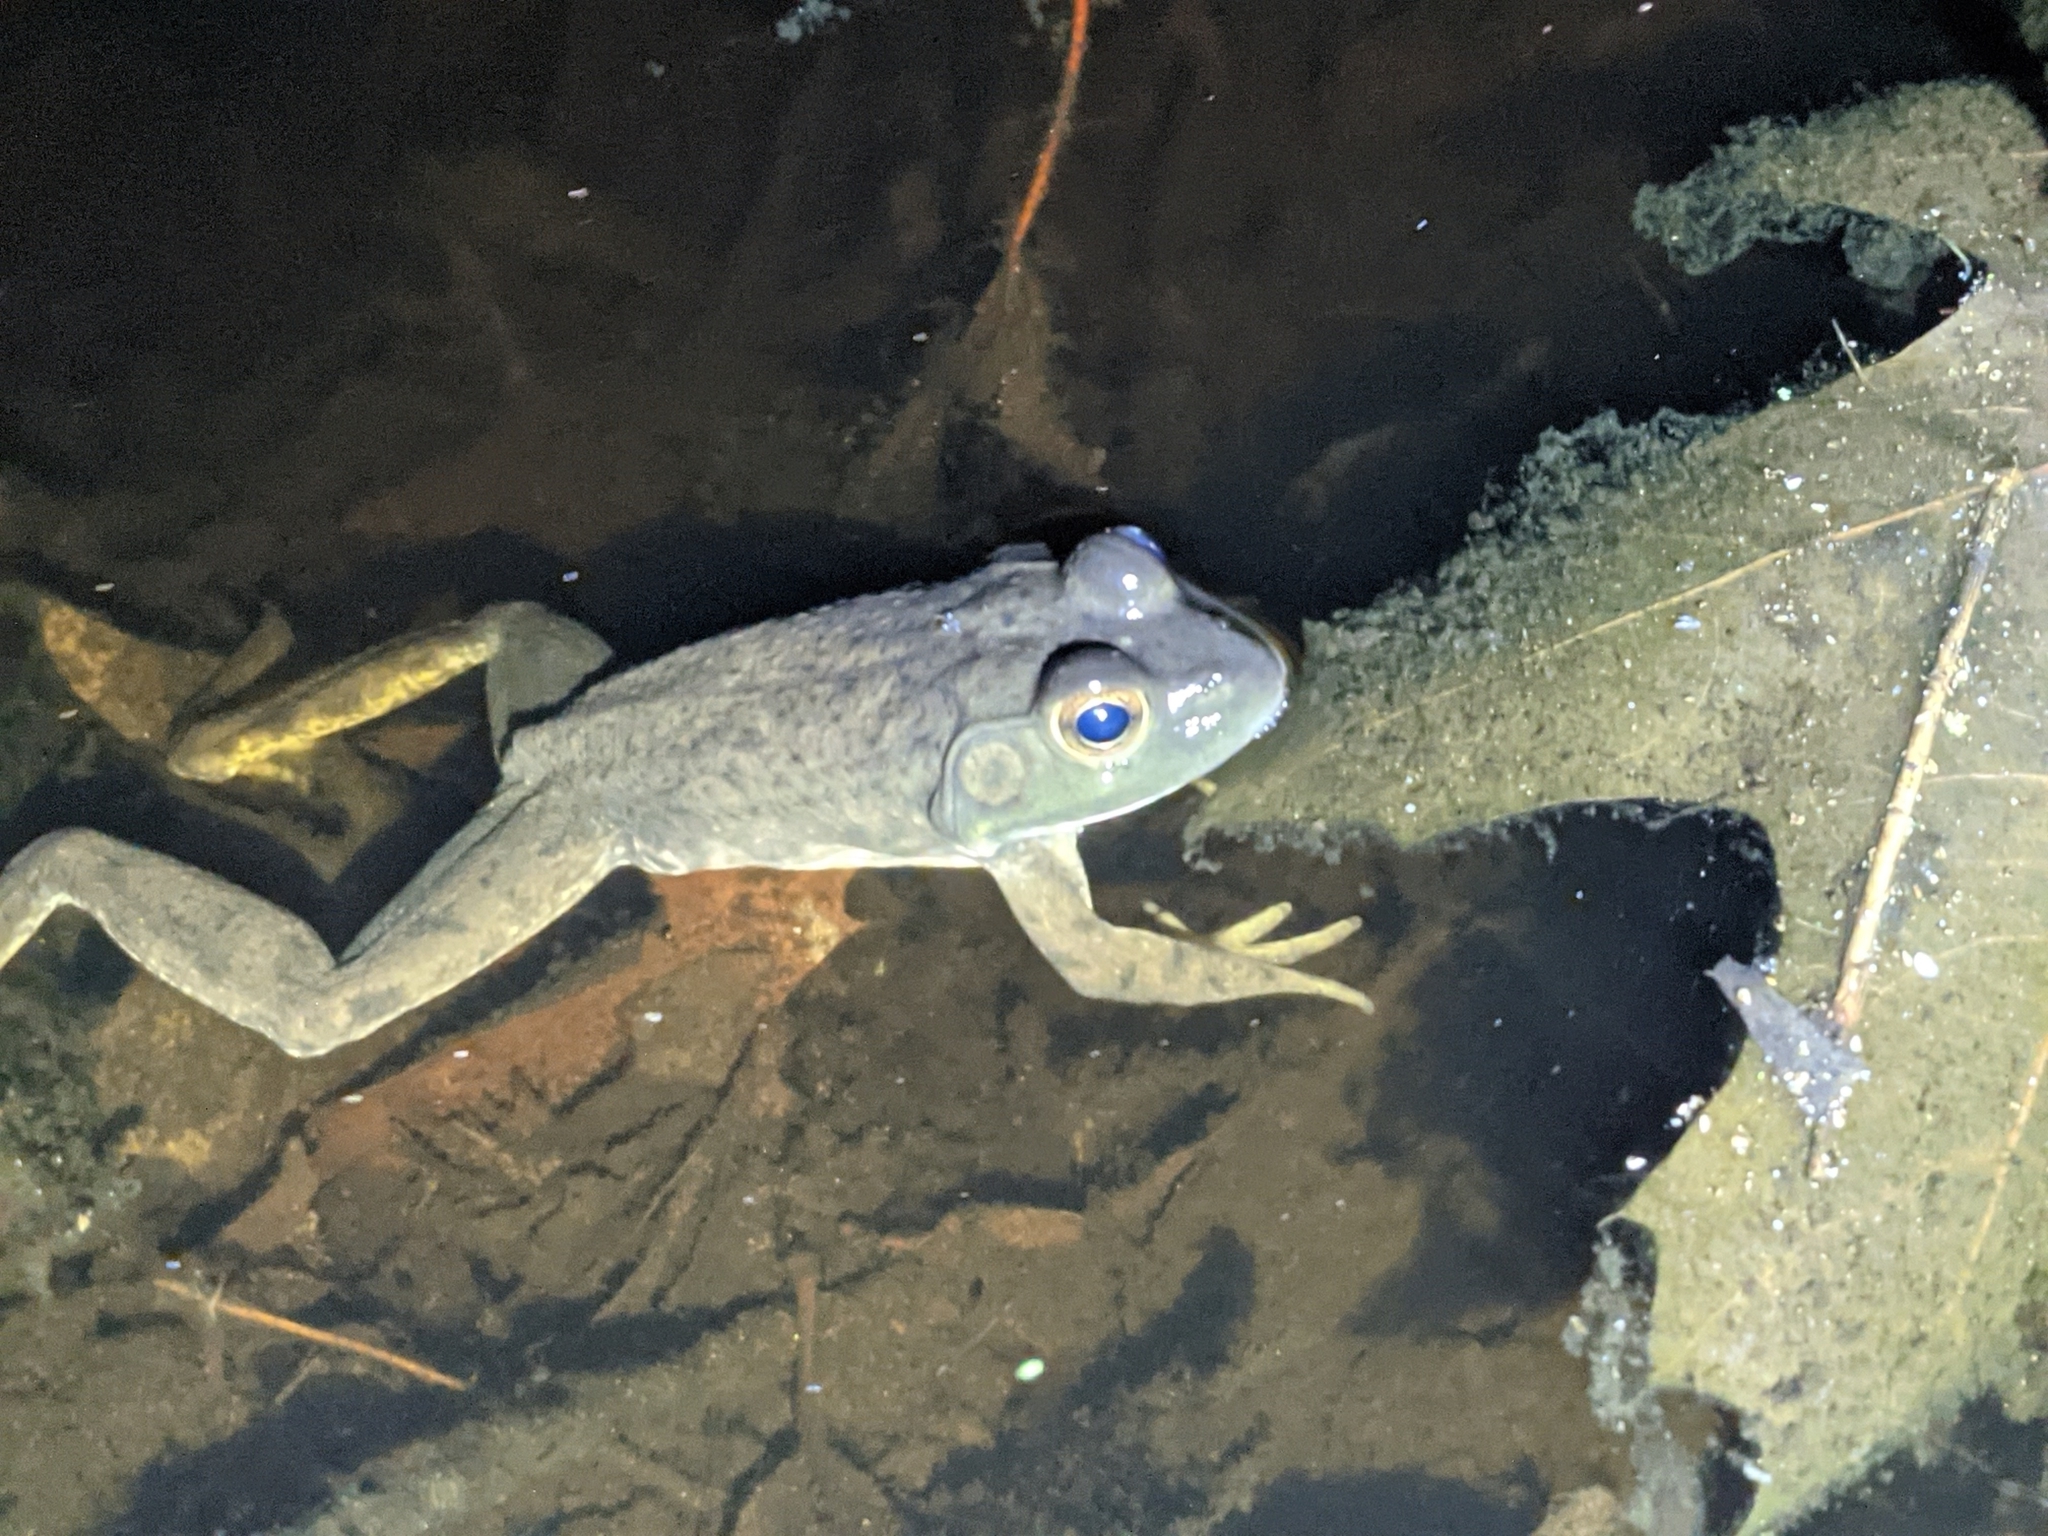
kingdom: Animalia
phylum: Chordata
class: Amphibia
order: Anura
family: Ranidae
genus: Lithobates
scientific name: Lithobates catesbeianus
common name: American bullfrog
